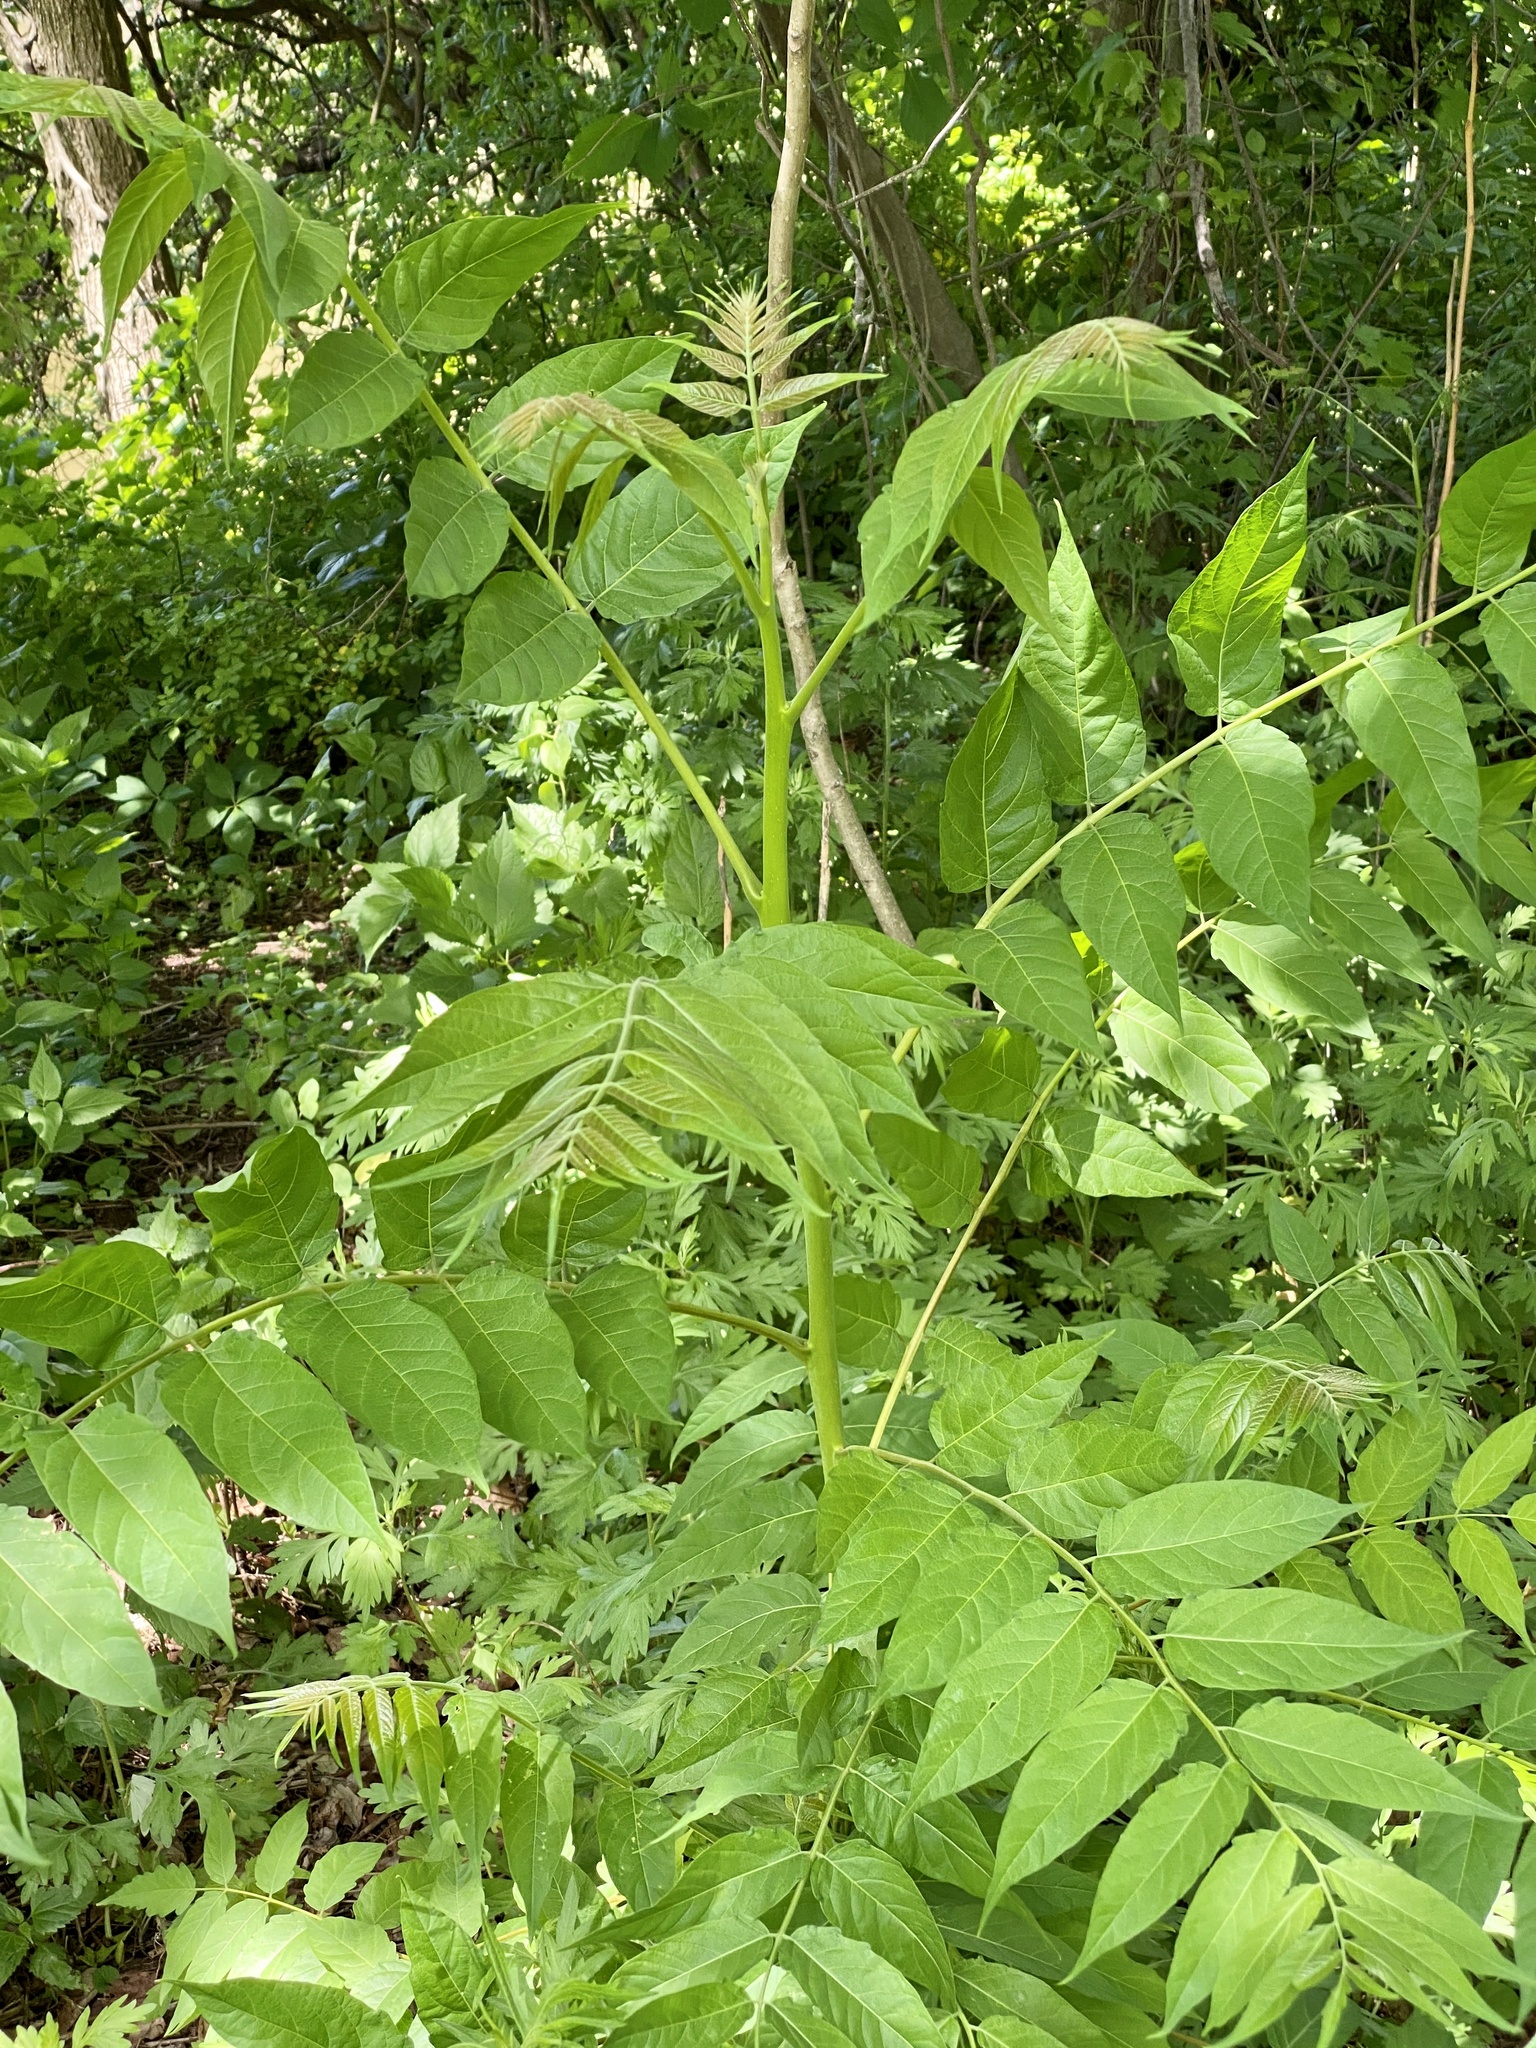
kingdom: Plantae
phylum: Tracheophyta
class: Magnoliopsida
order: Sapindales
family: Simaroubaceae
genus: Ailanthus
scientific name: Ailanthus altissima
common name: Tree-of-heaven
